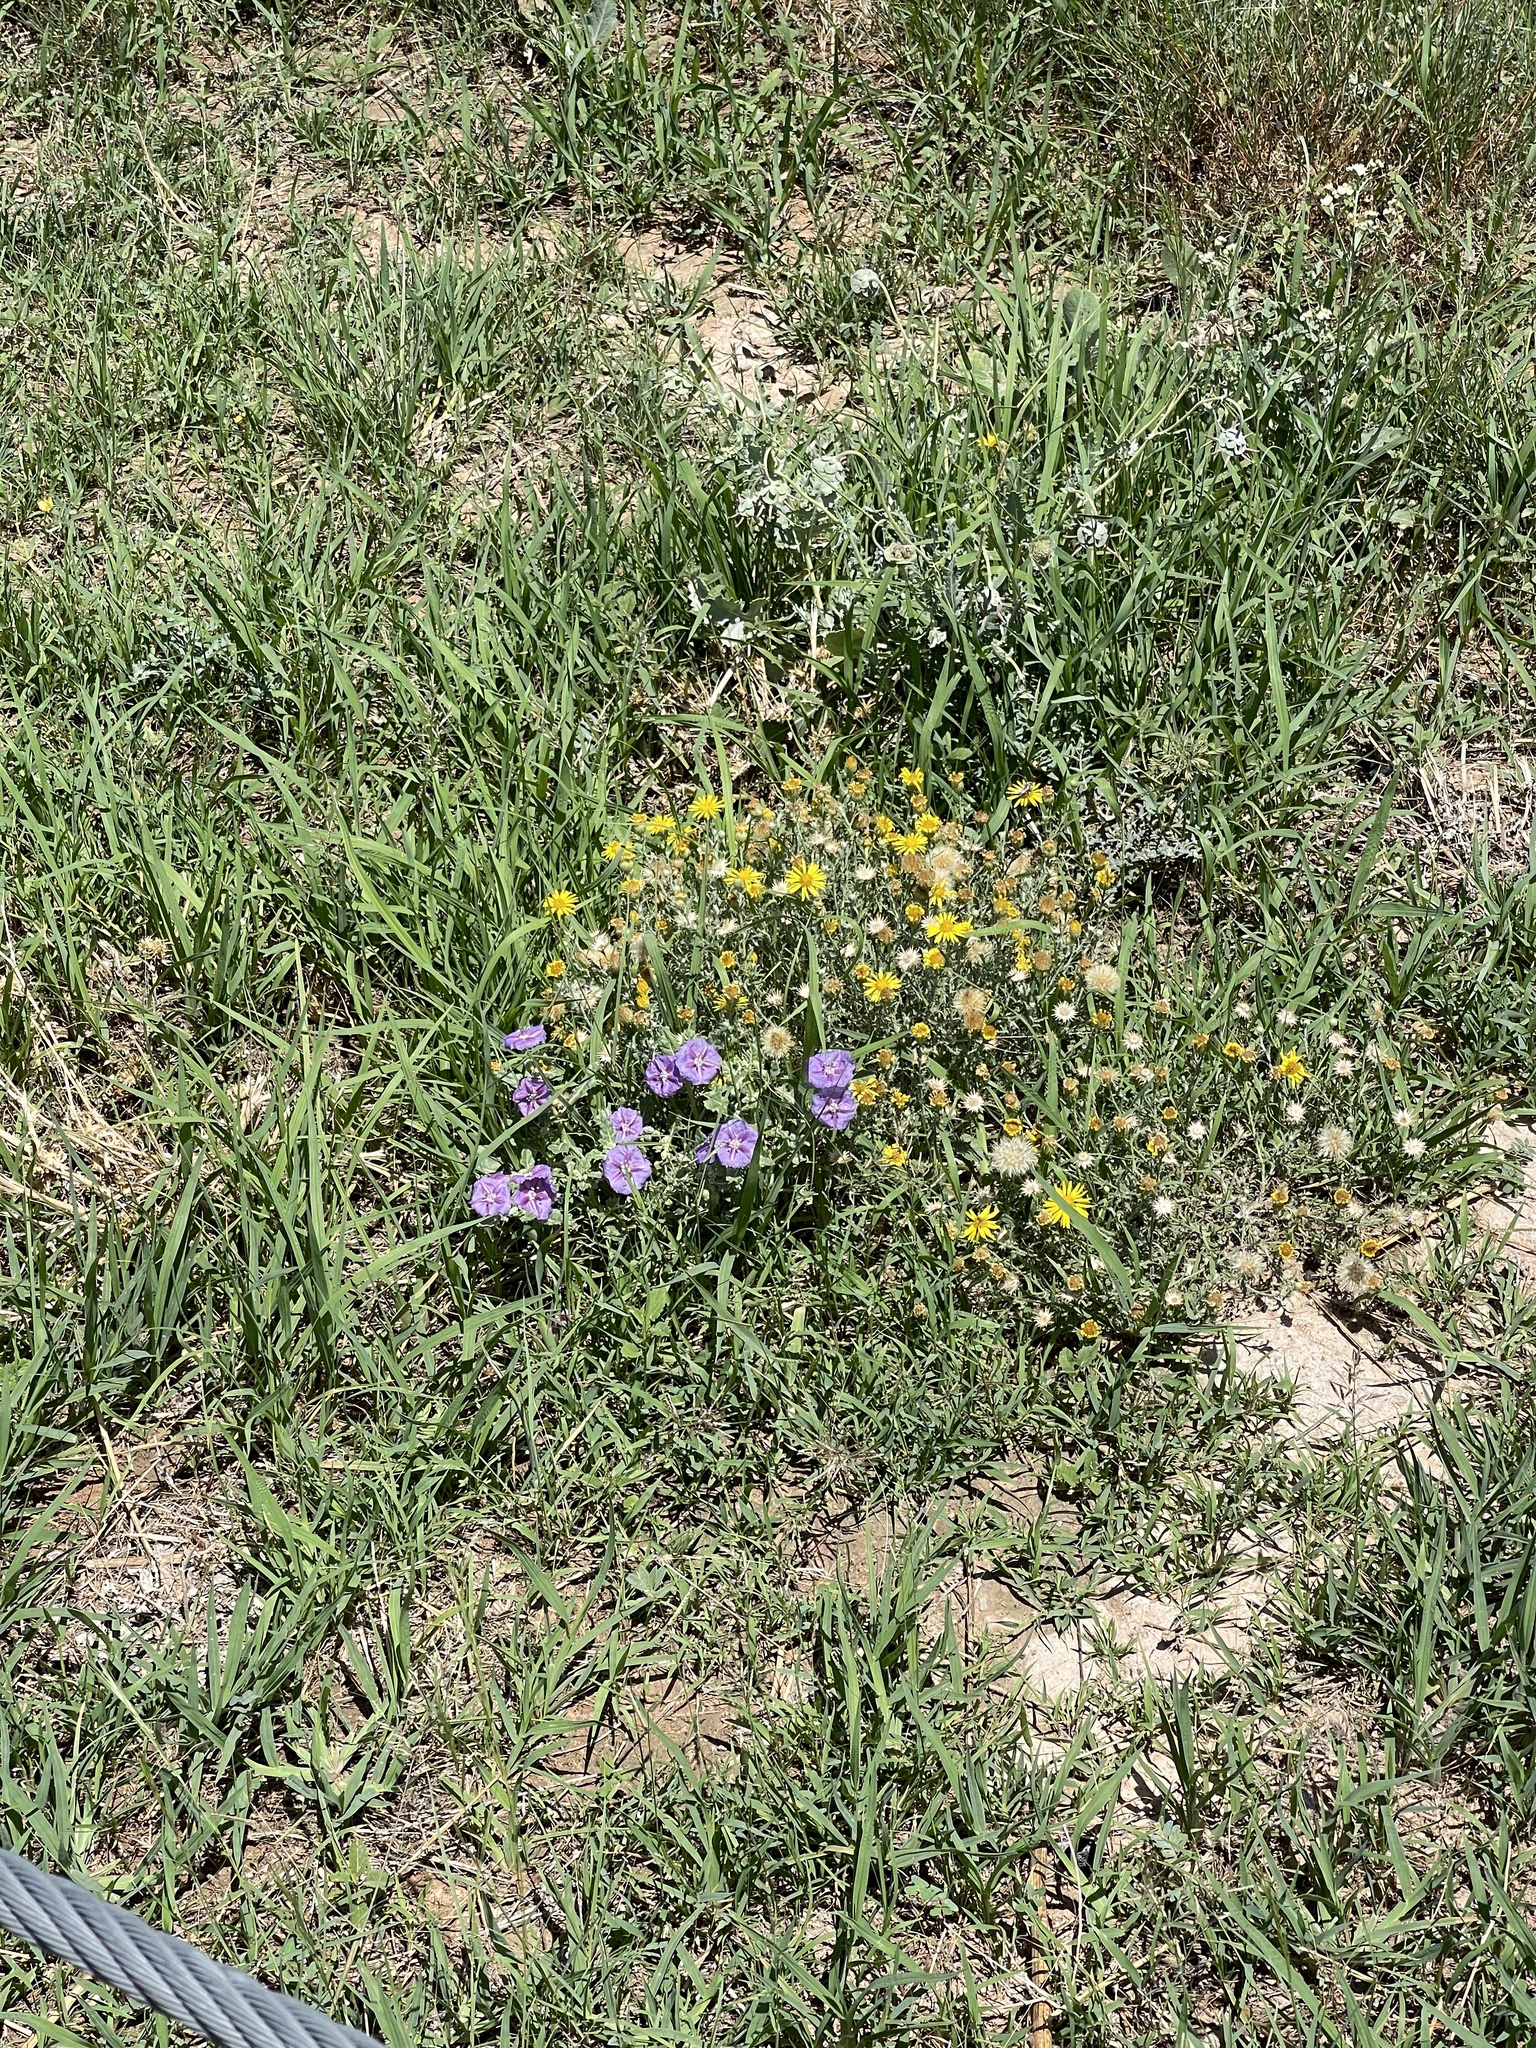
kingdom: Plantae
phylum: Tracheophyta
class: Magnoliopsida
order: Solanales
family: Solanaceae
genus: Quincula
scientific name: Quincula lobata
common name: Purple-ground-cherry
